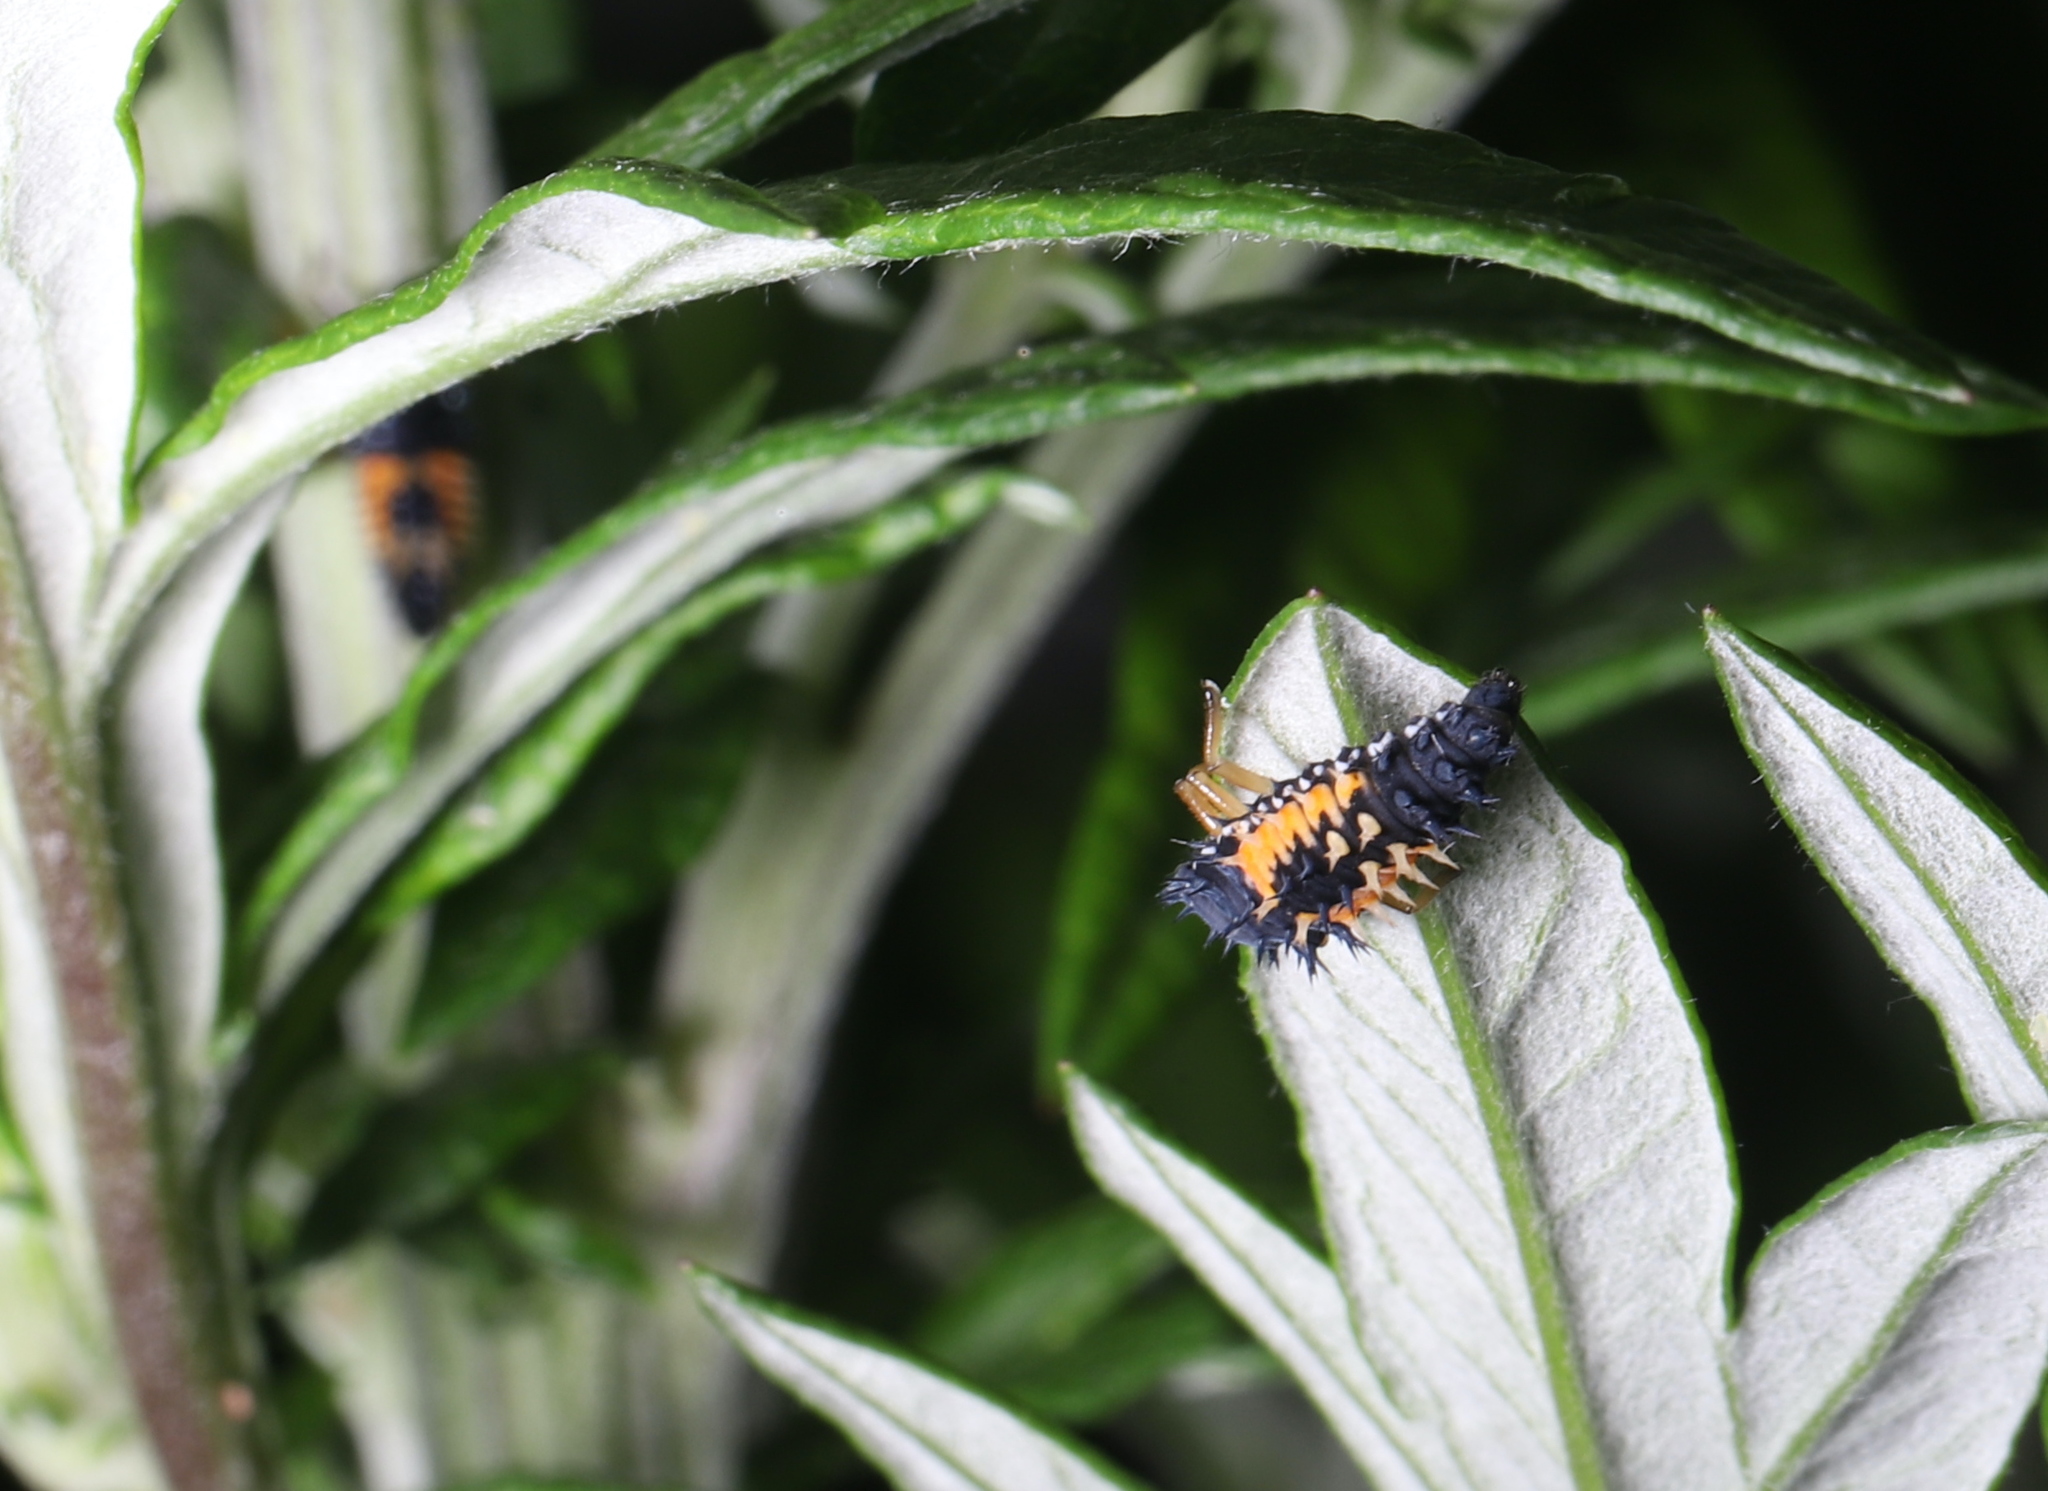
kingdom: Animalia
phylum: Arthropoda
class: Insecta
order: Coleoptera
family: Coccinellidae
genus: Harmonia
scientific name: Harmonia axyridis
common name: Harlequin ladybird
